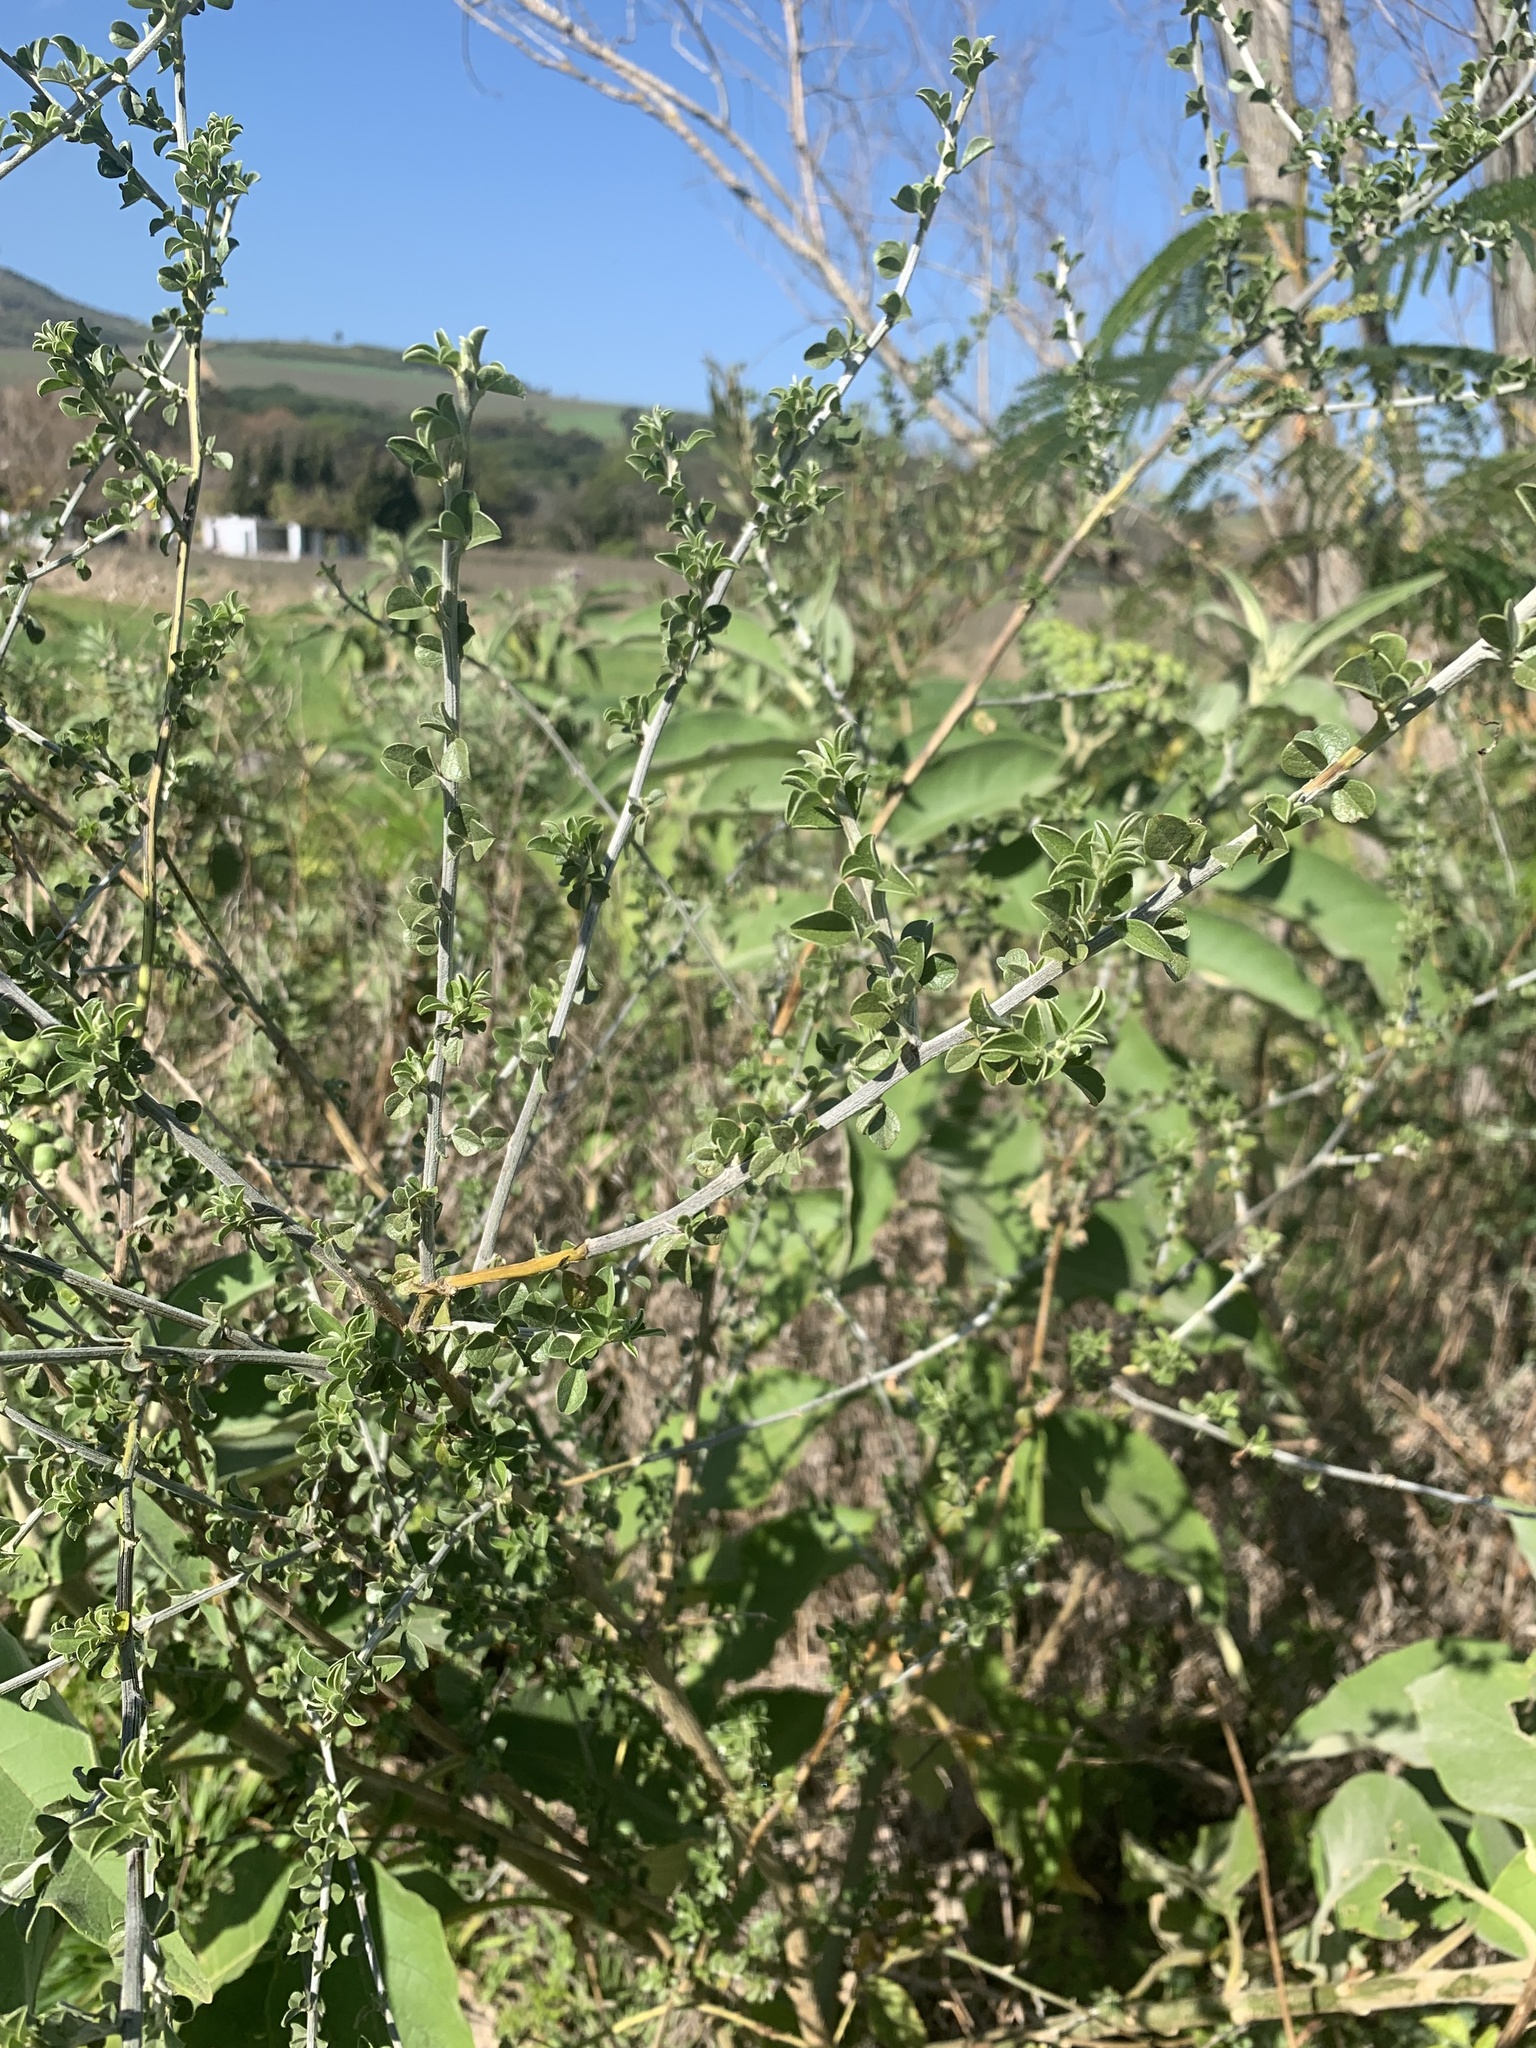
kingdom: Plantae
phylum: Tracheophyta
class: Magnoliopsida
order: Fabales
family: Fabaceae
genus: Psoralea
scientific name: Psoralea hirta
